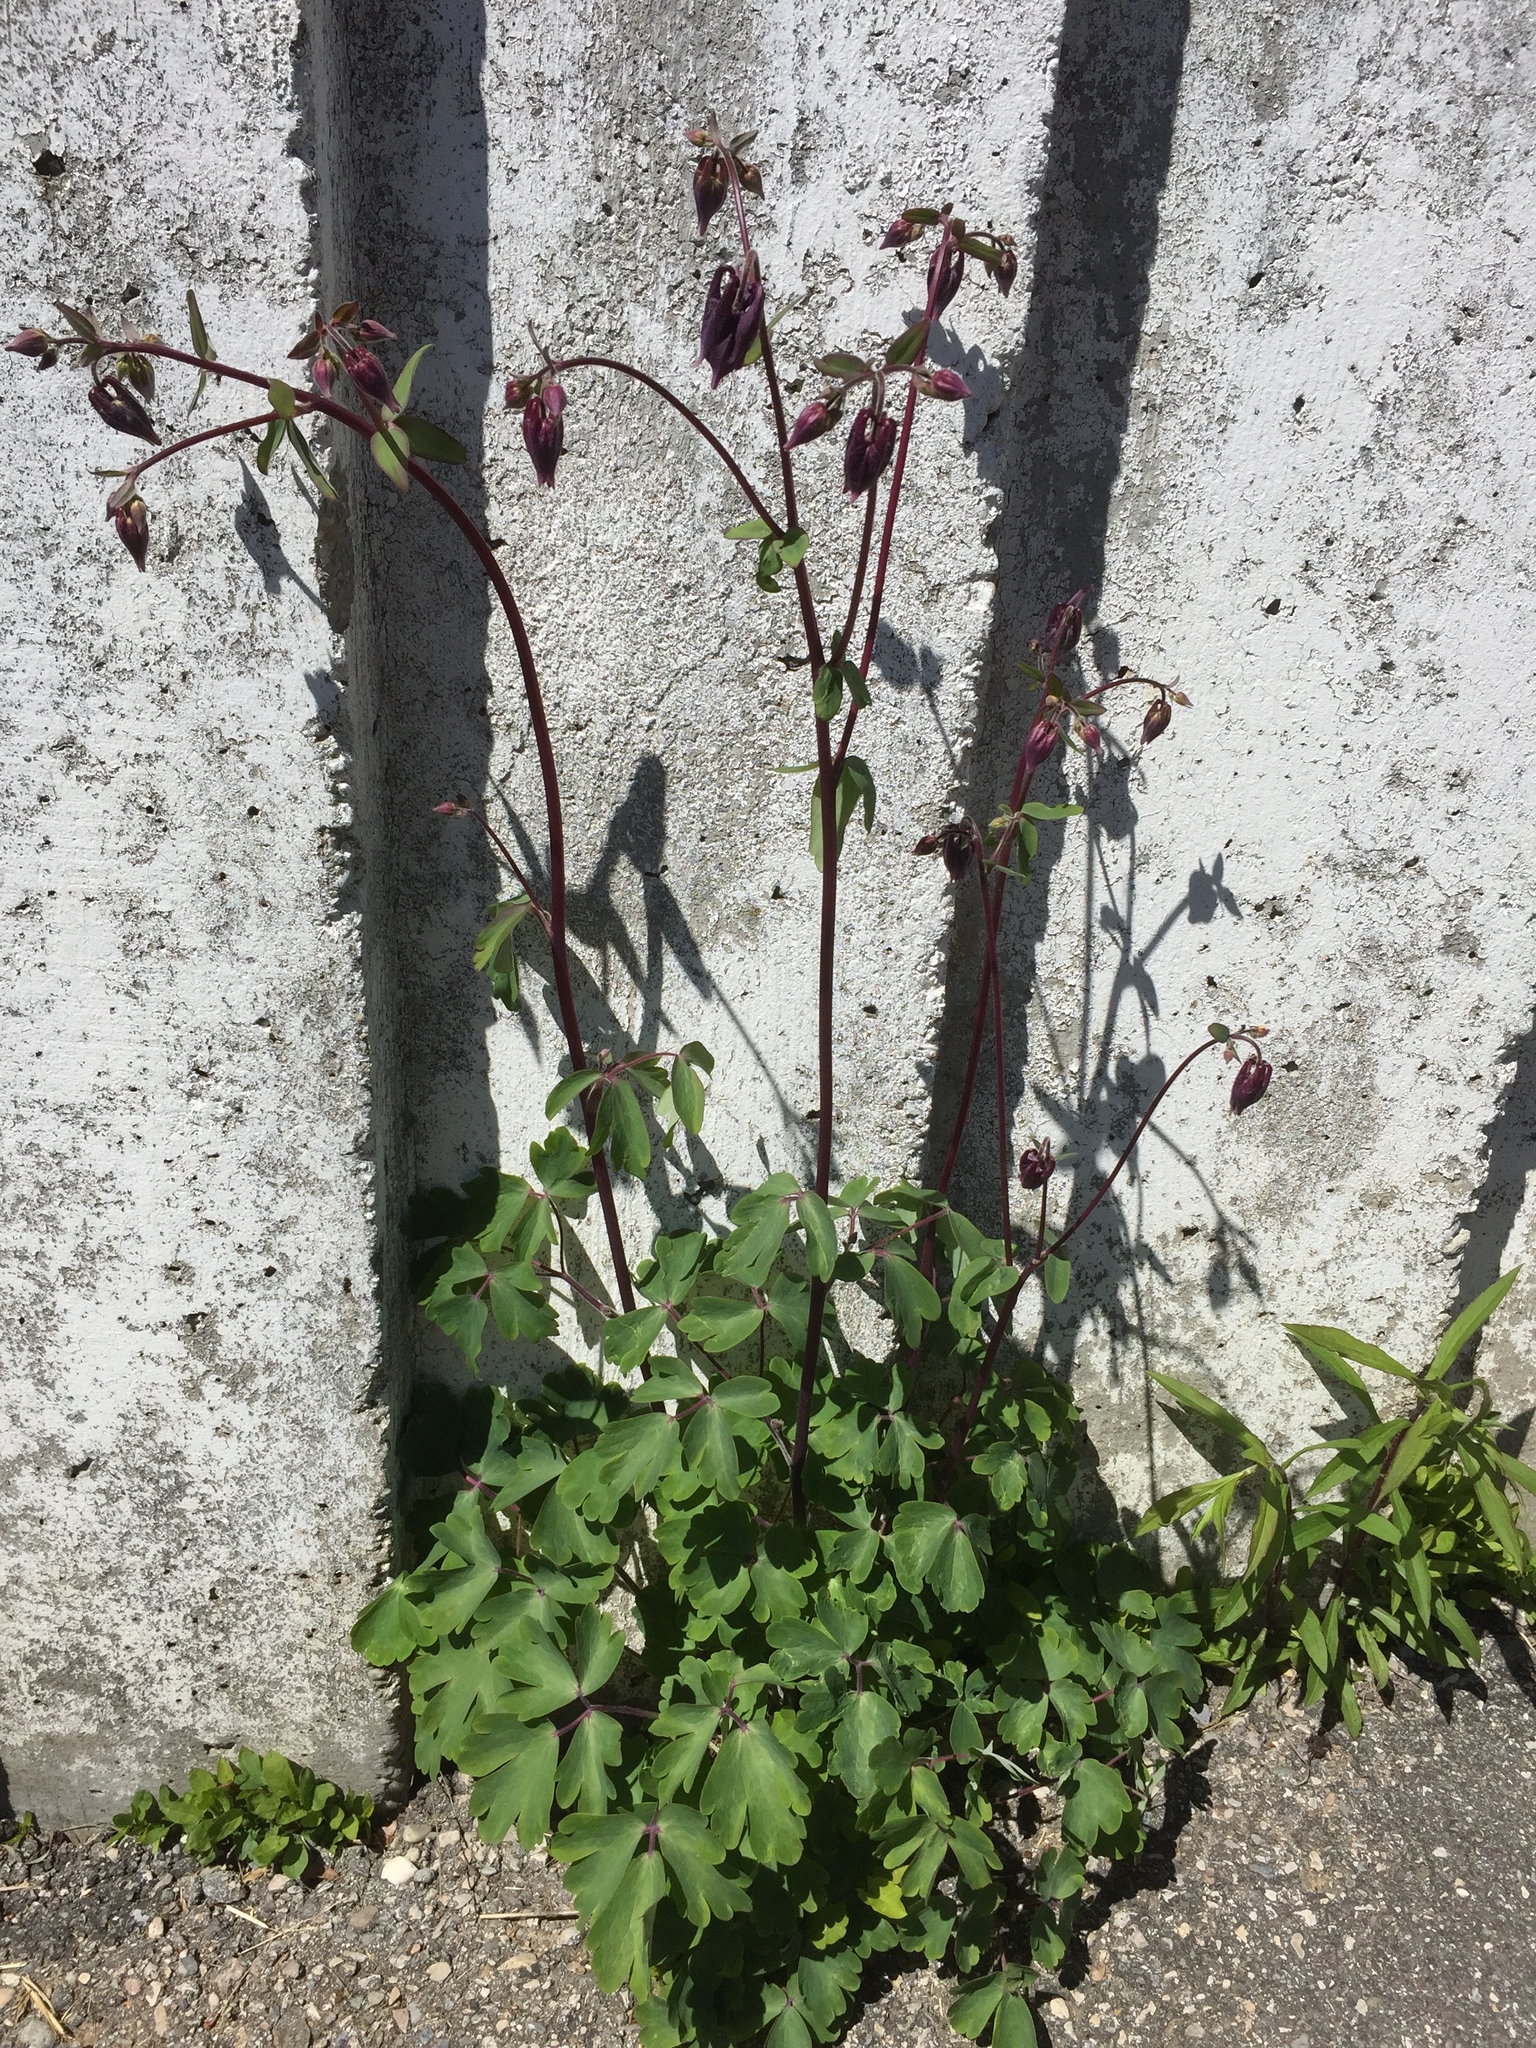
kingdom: Plantae
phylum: Tracheophyta
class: Magnoliopsida
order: Ranunculales
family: Ranunculaceae
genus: Aquilegia
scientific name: Aquilegia atrata
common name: Dark columbine
